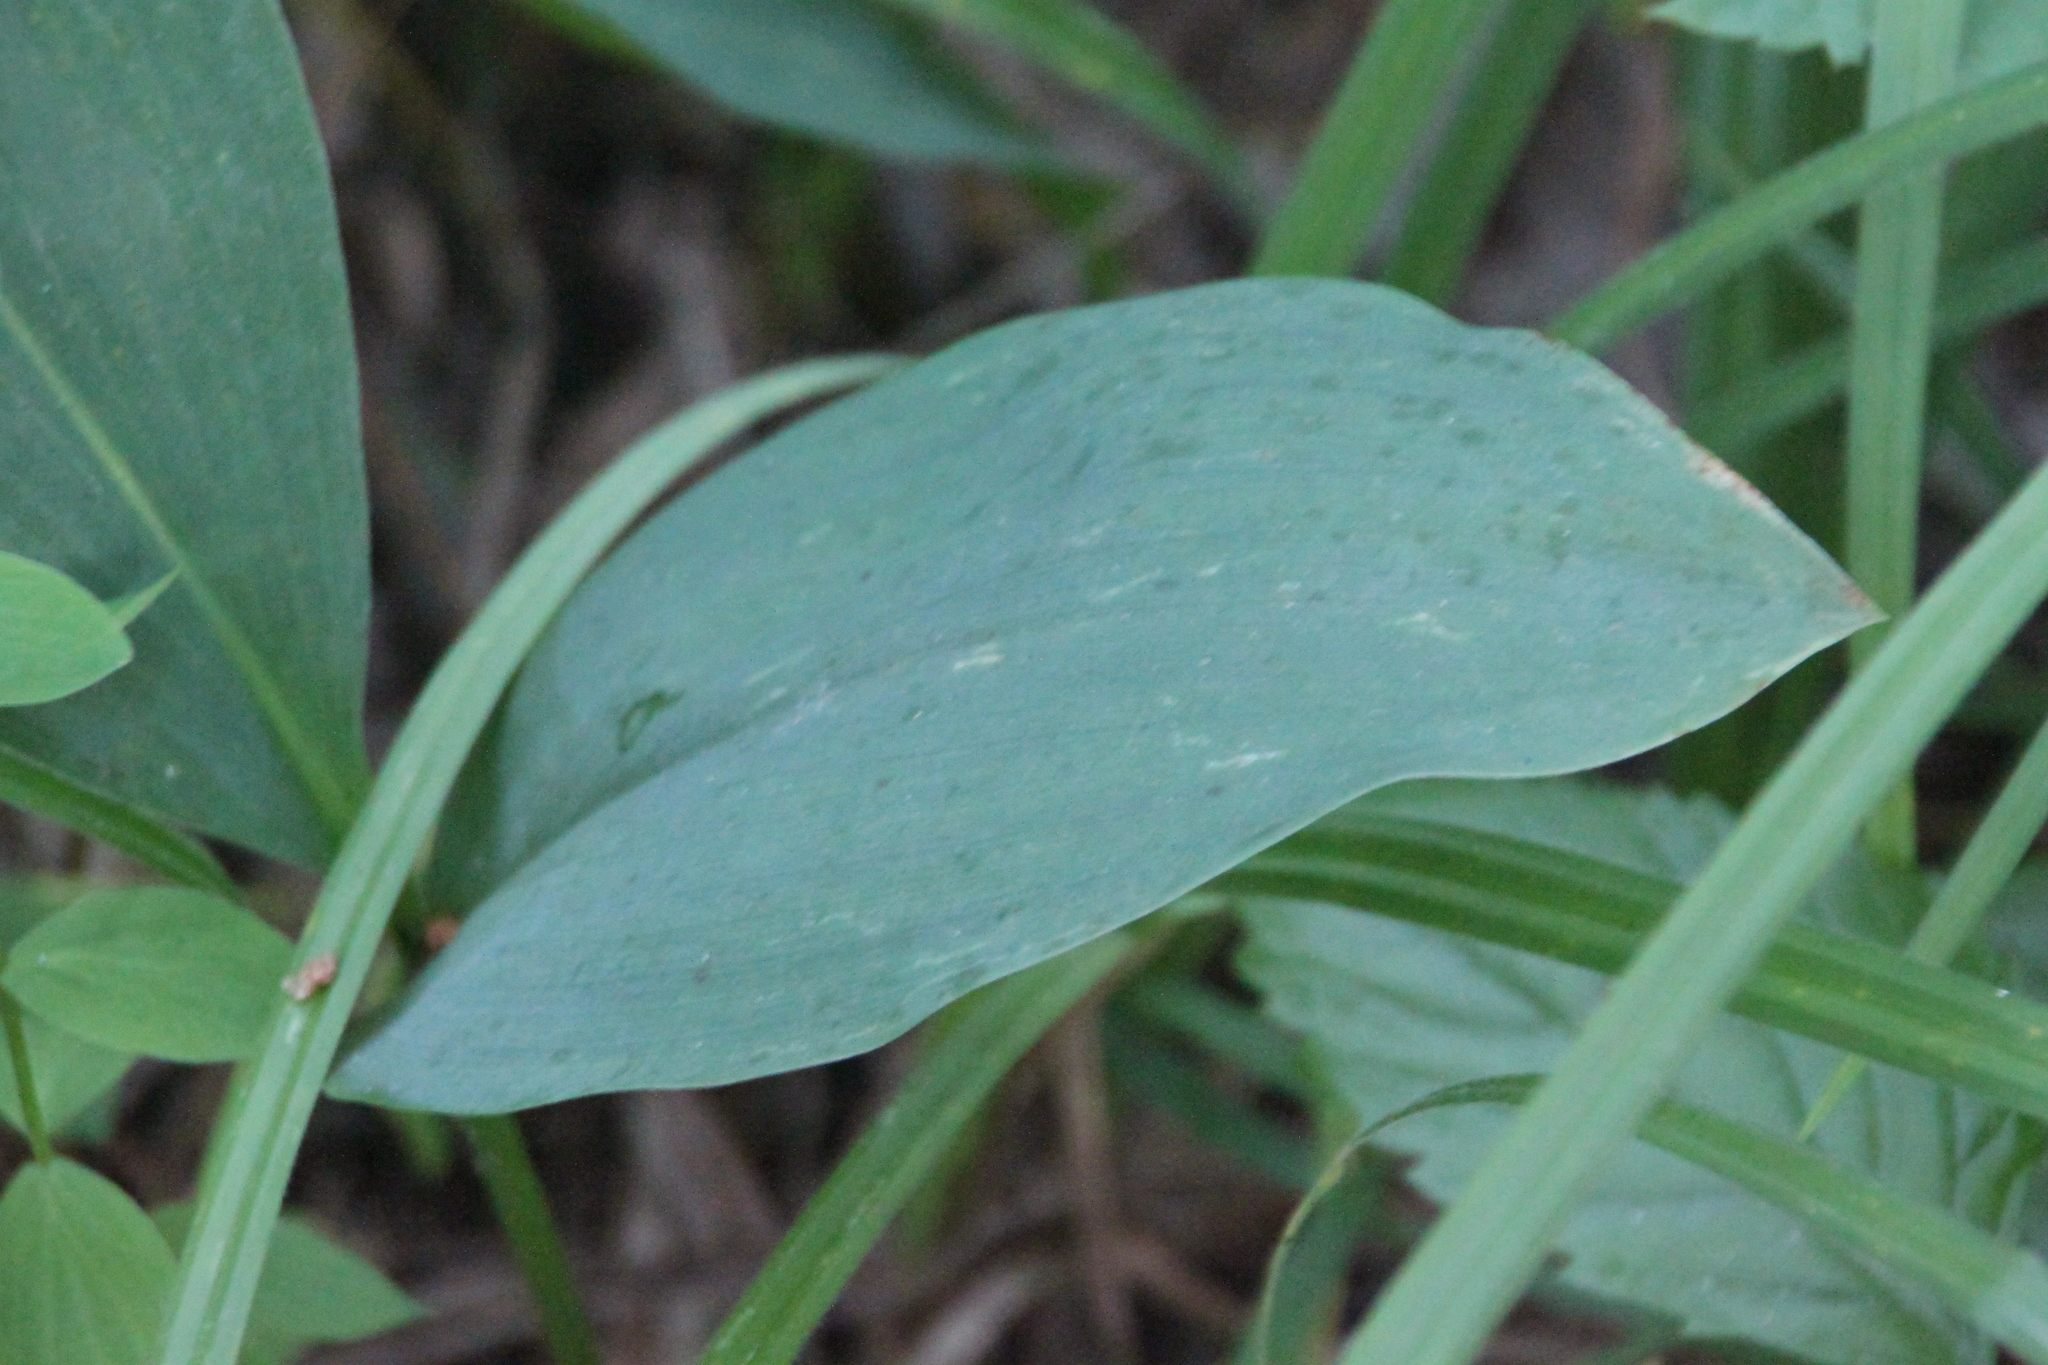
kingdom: Plantae
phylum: Tracheophyta
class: Liliopsida
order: Asparagales
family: Asparagaceae
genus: Convallaria
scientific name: Convallaria majalis
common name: Lily-of-the-valley
